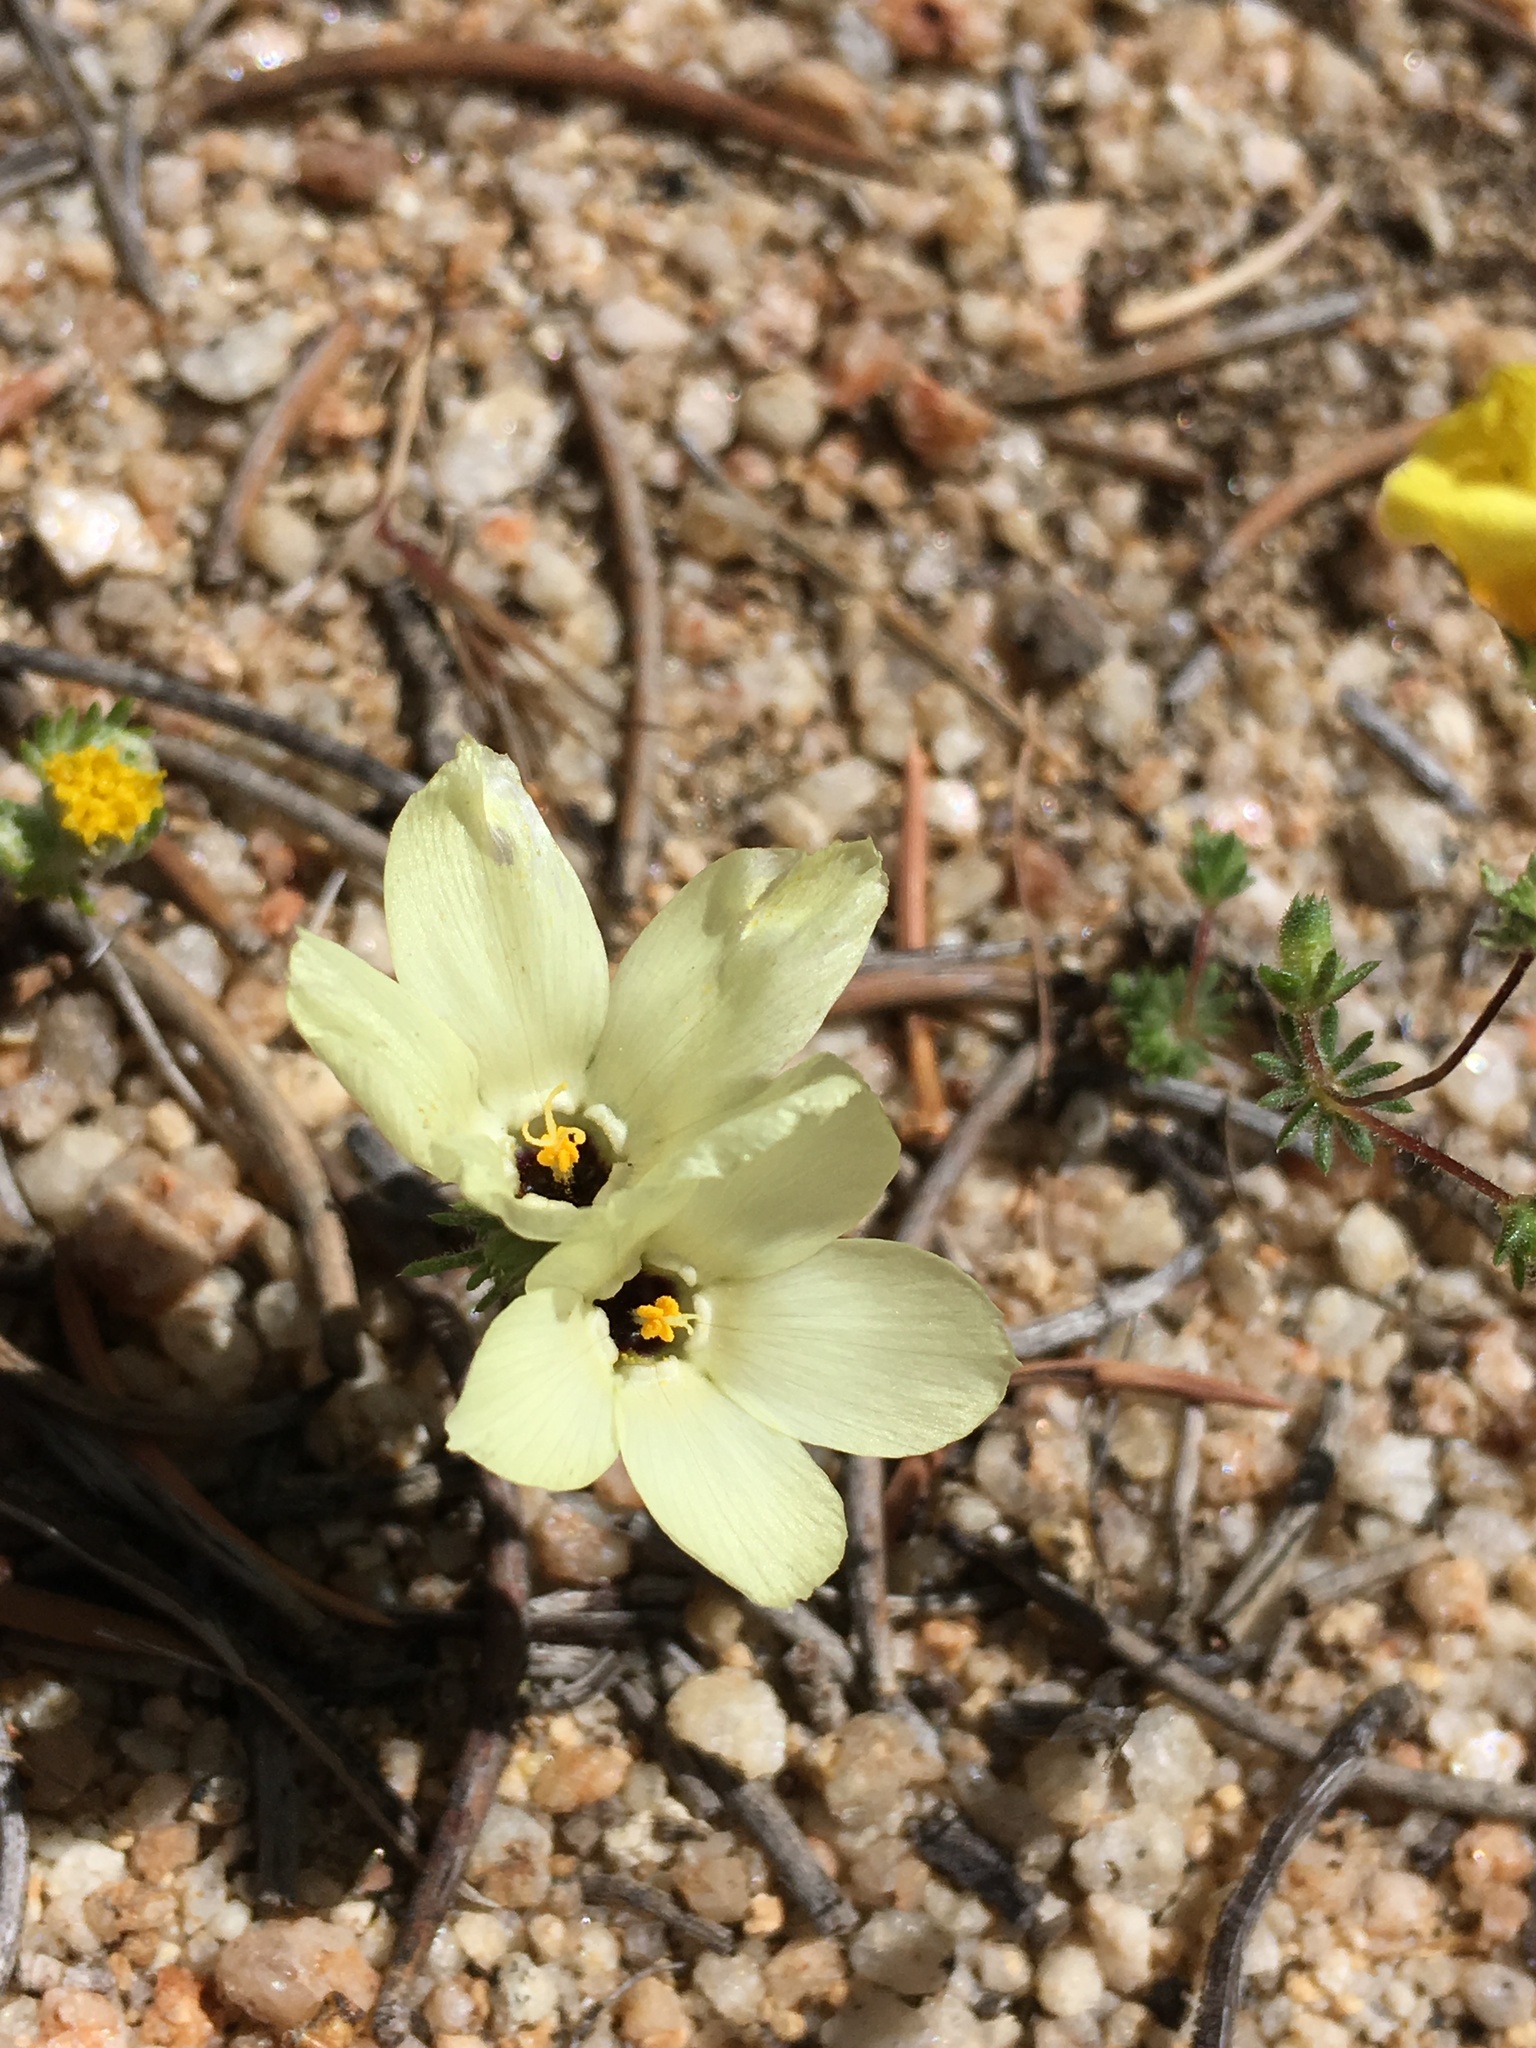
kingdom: Plantae
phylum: Tracheophyta
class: Magnoliopsida
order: Ericales
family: Polemoniaceae
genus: Linanthus
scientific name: Linanthus parryae
